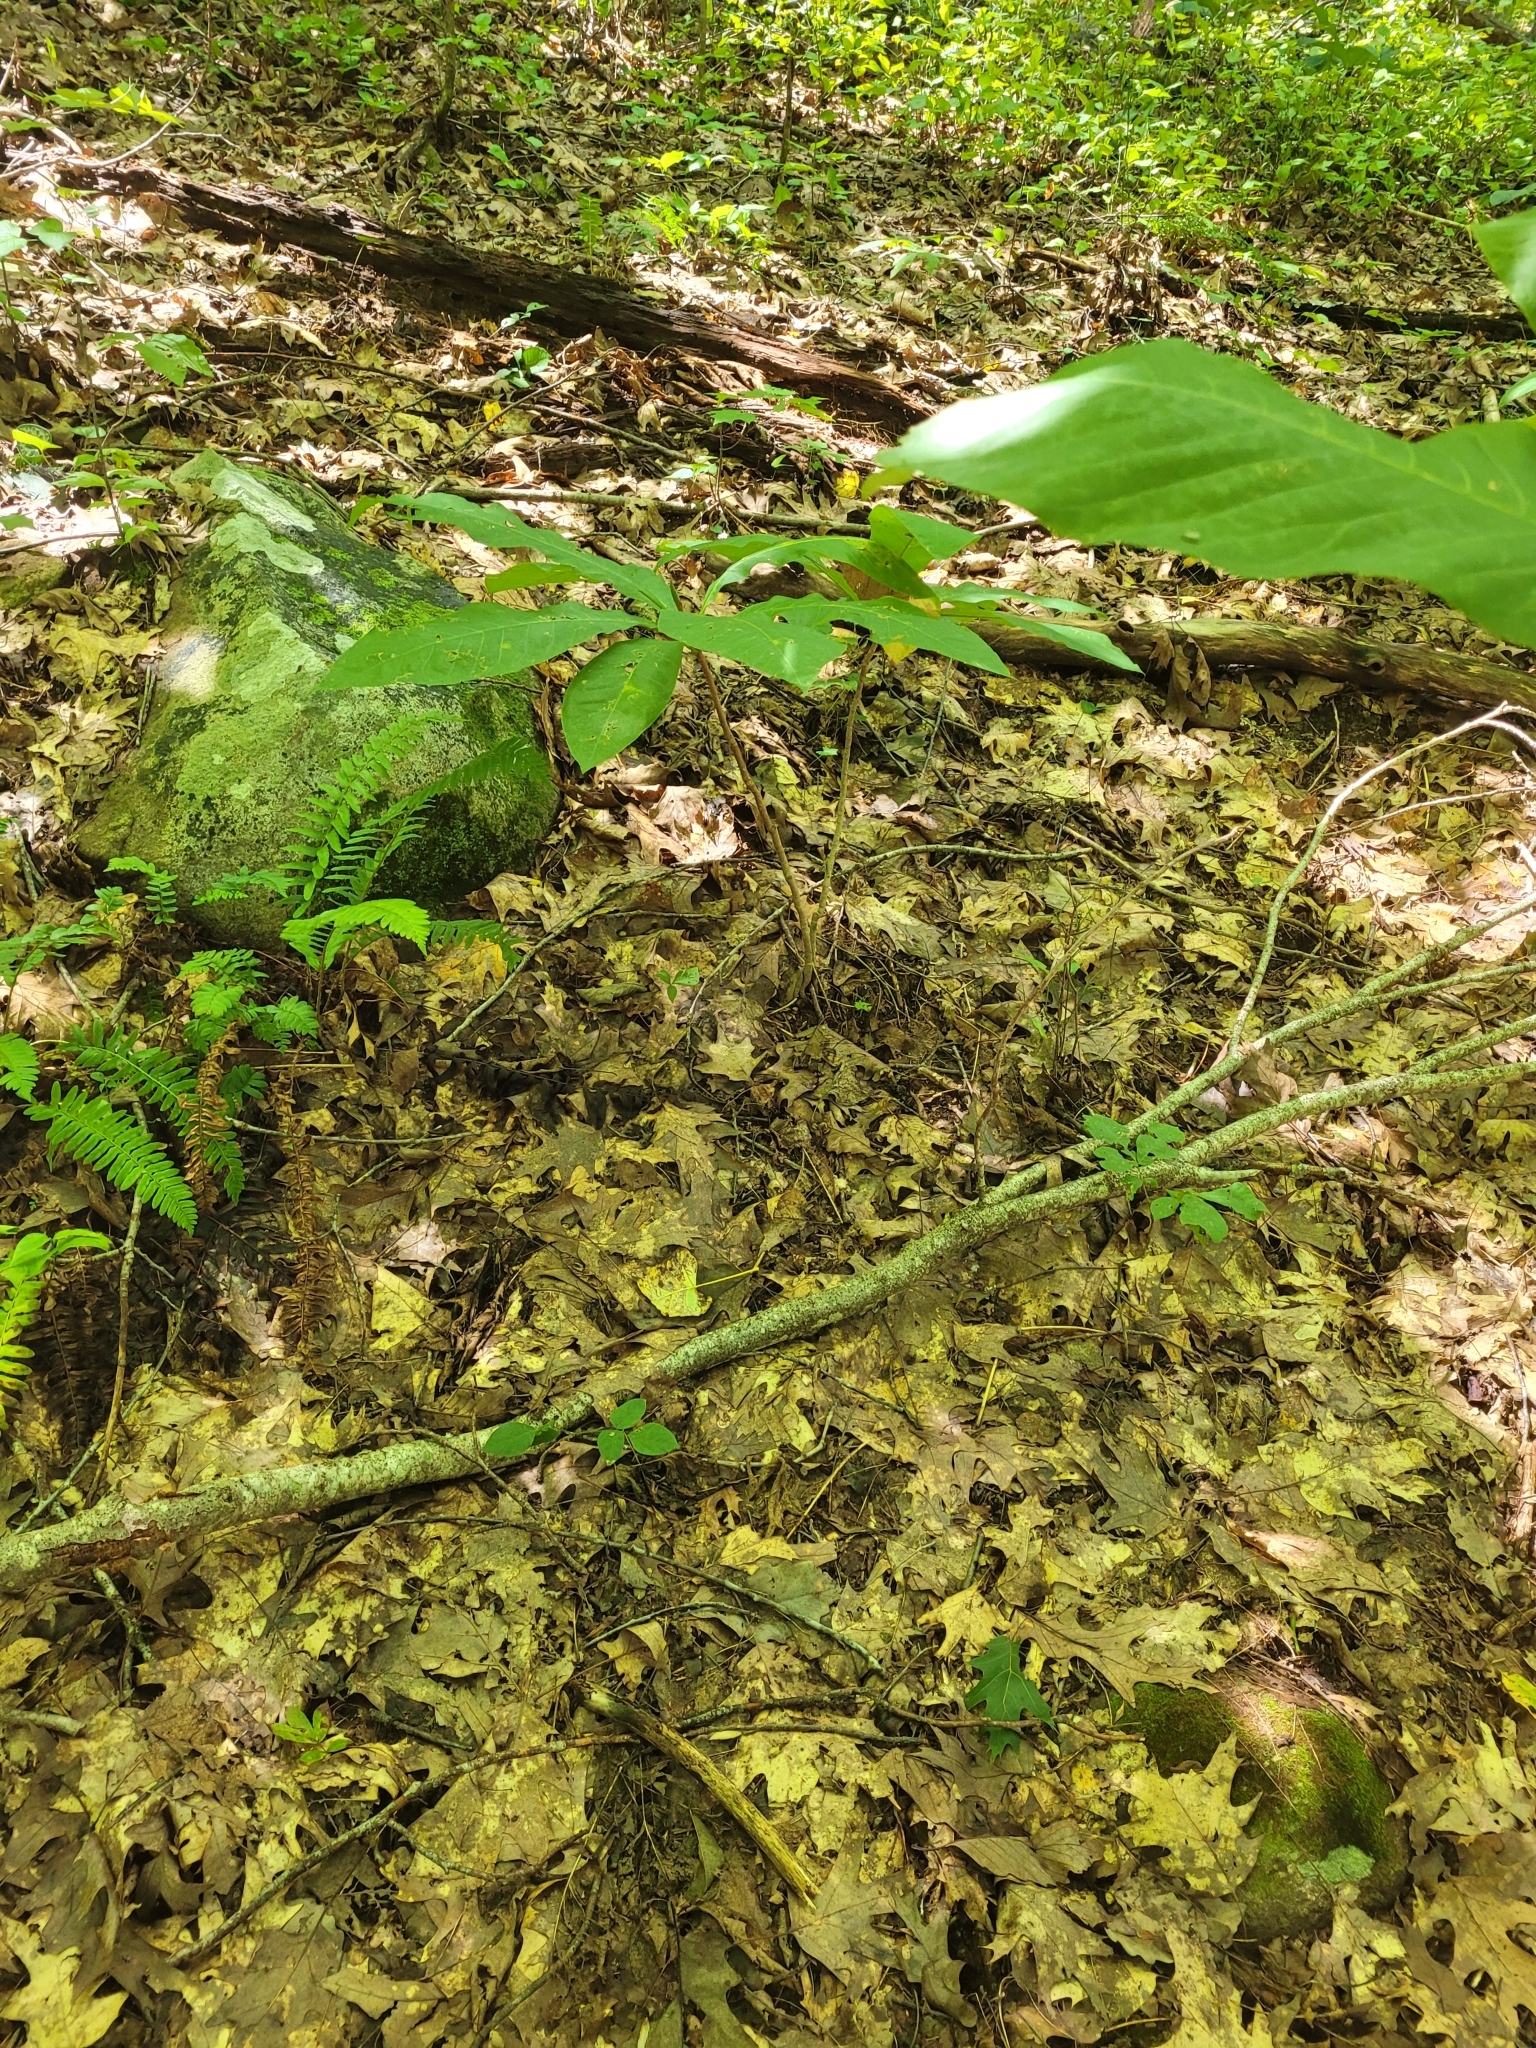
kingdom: Plantae
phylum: Tracheophyta
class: Magnoliopsida
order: Magnoliales
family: Magnoliaceae
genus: Magnolia
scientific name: Magnolia tripetala
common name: Umbrella magnolia
